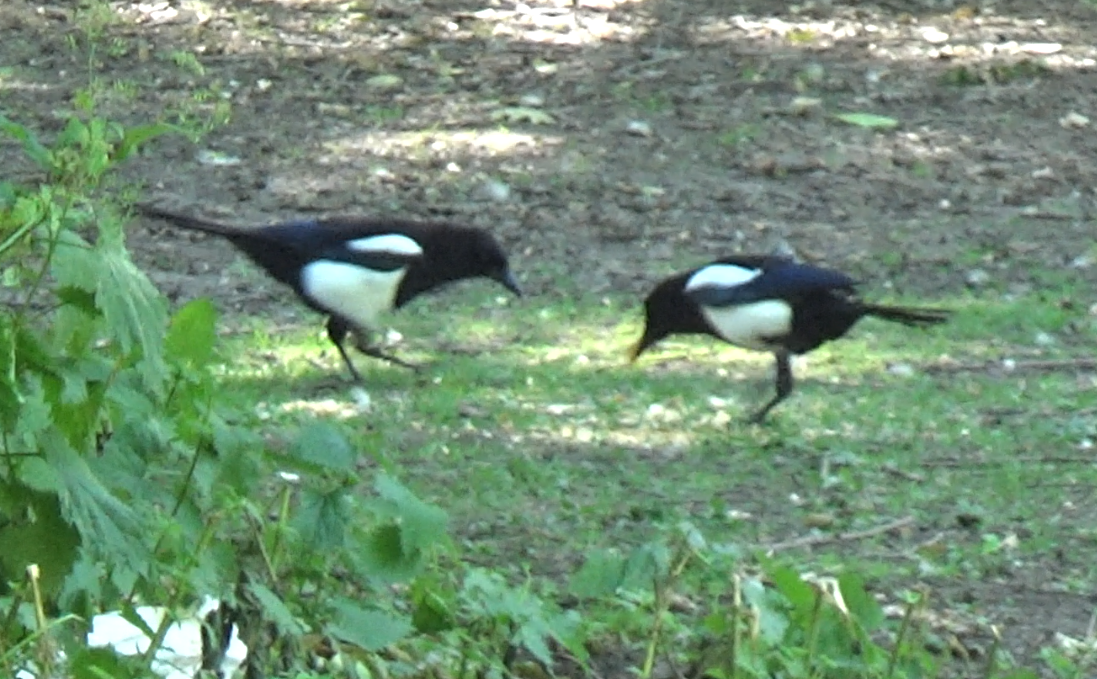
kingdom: Animalia
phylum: Chordata
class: Aves
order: Passeriformes
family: Corvidae
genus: Pica
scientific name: Pica pica
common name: Eurasian magpie
